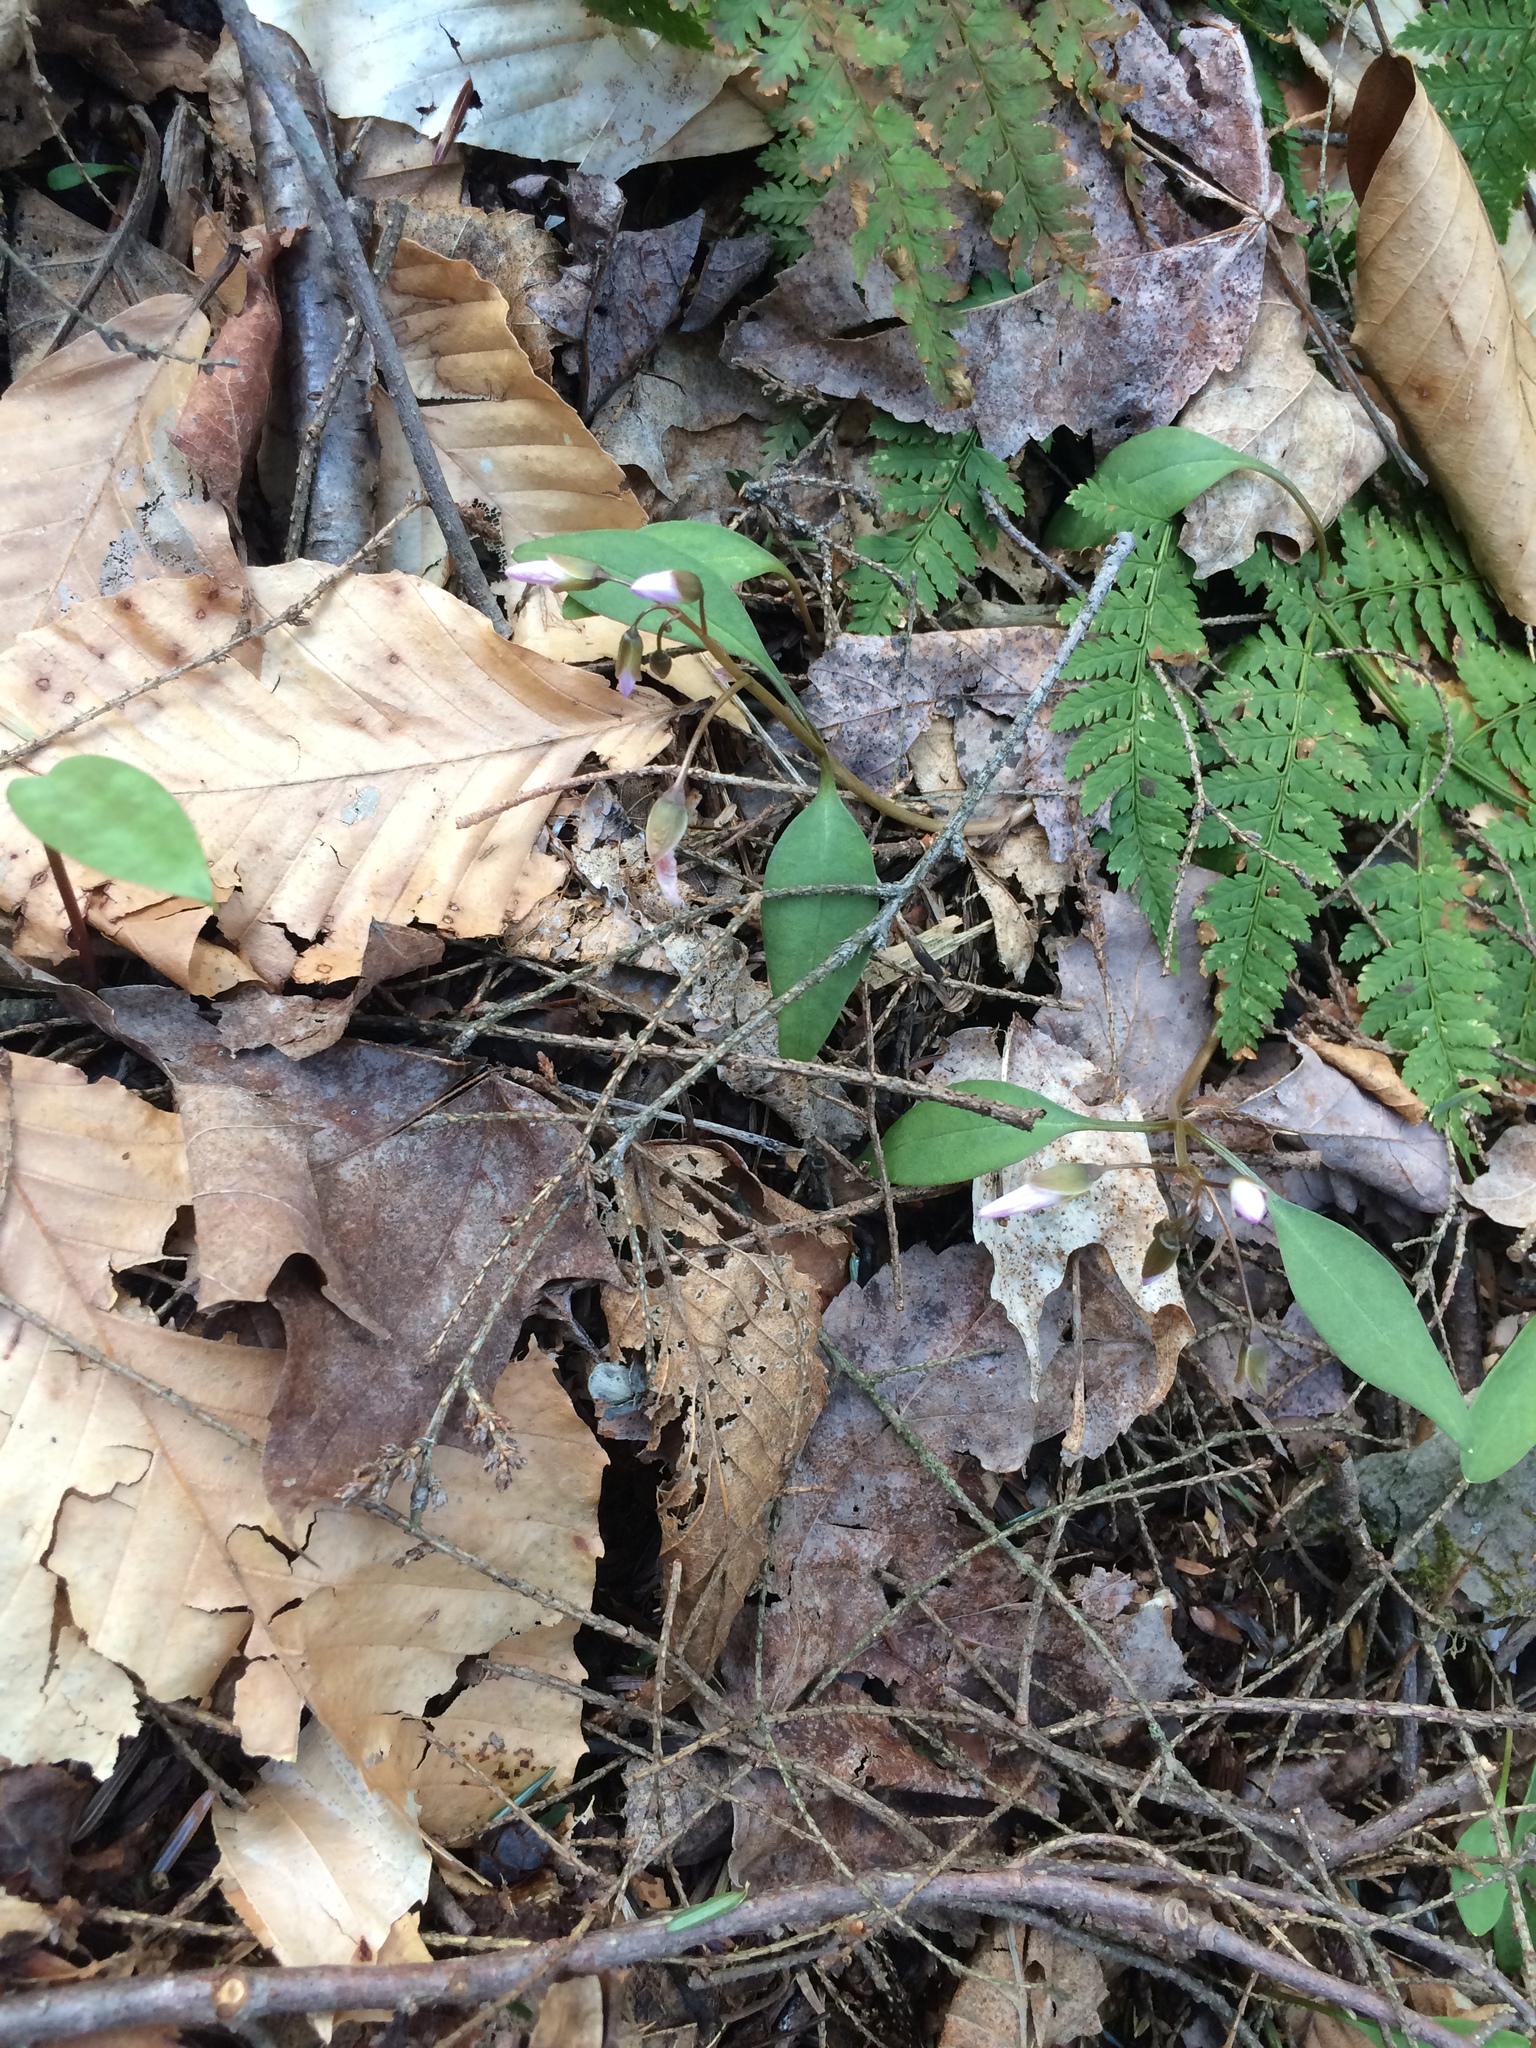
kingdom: Plantae
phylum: Tracheophyta
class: Magnoliopsida
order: Caryophyllales
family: Montiaceae
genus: Claytonia
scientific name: Claytonia caroliniana
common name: Carolina spring beauty
